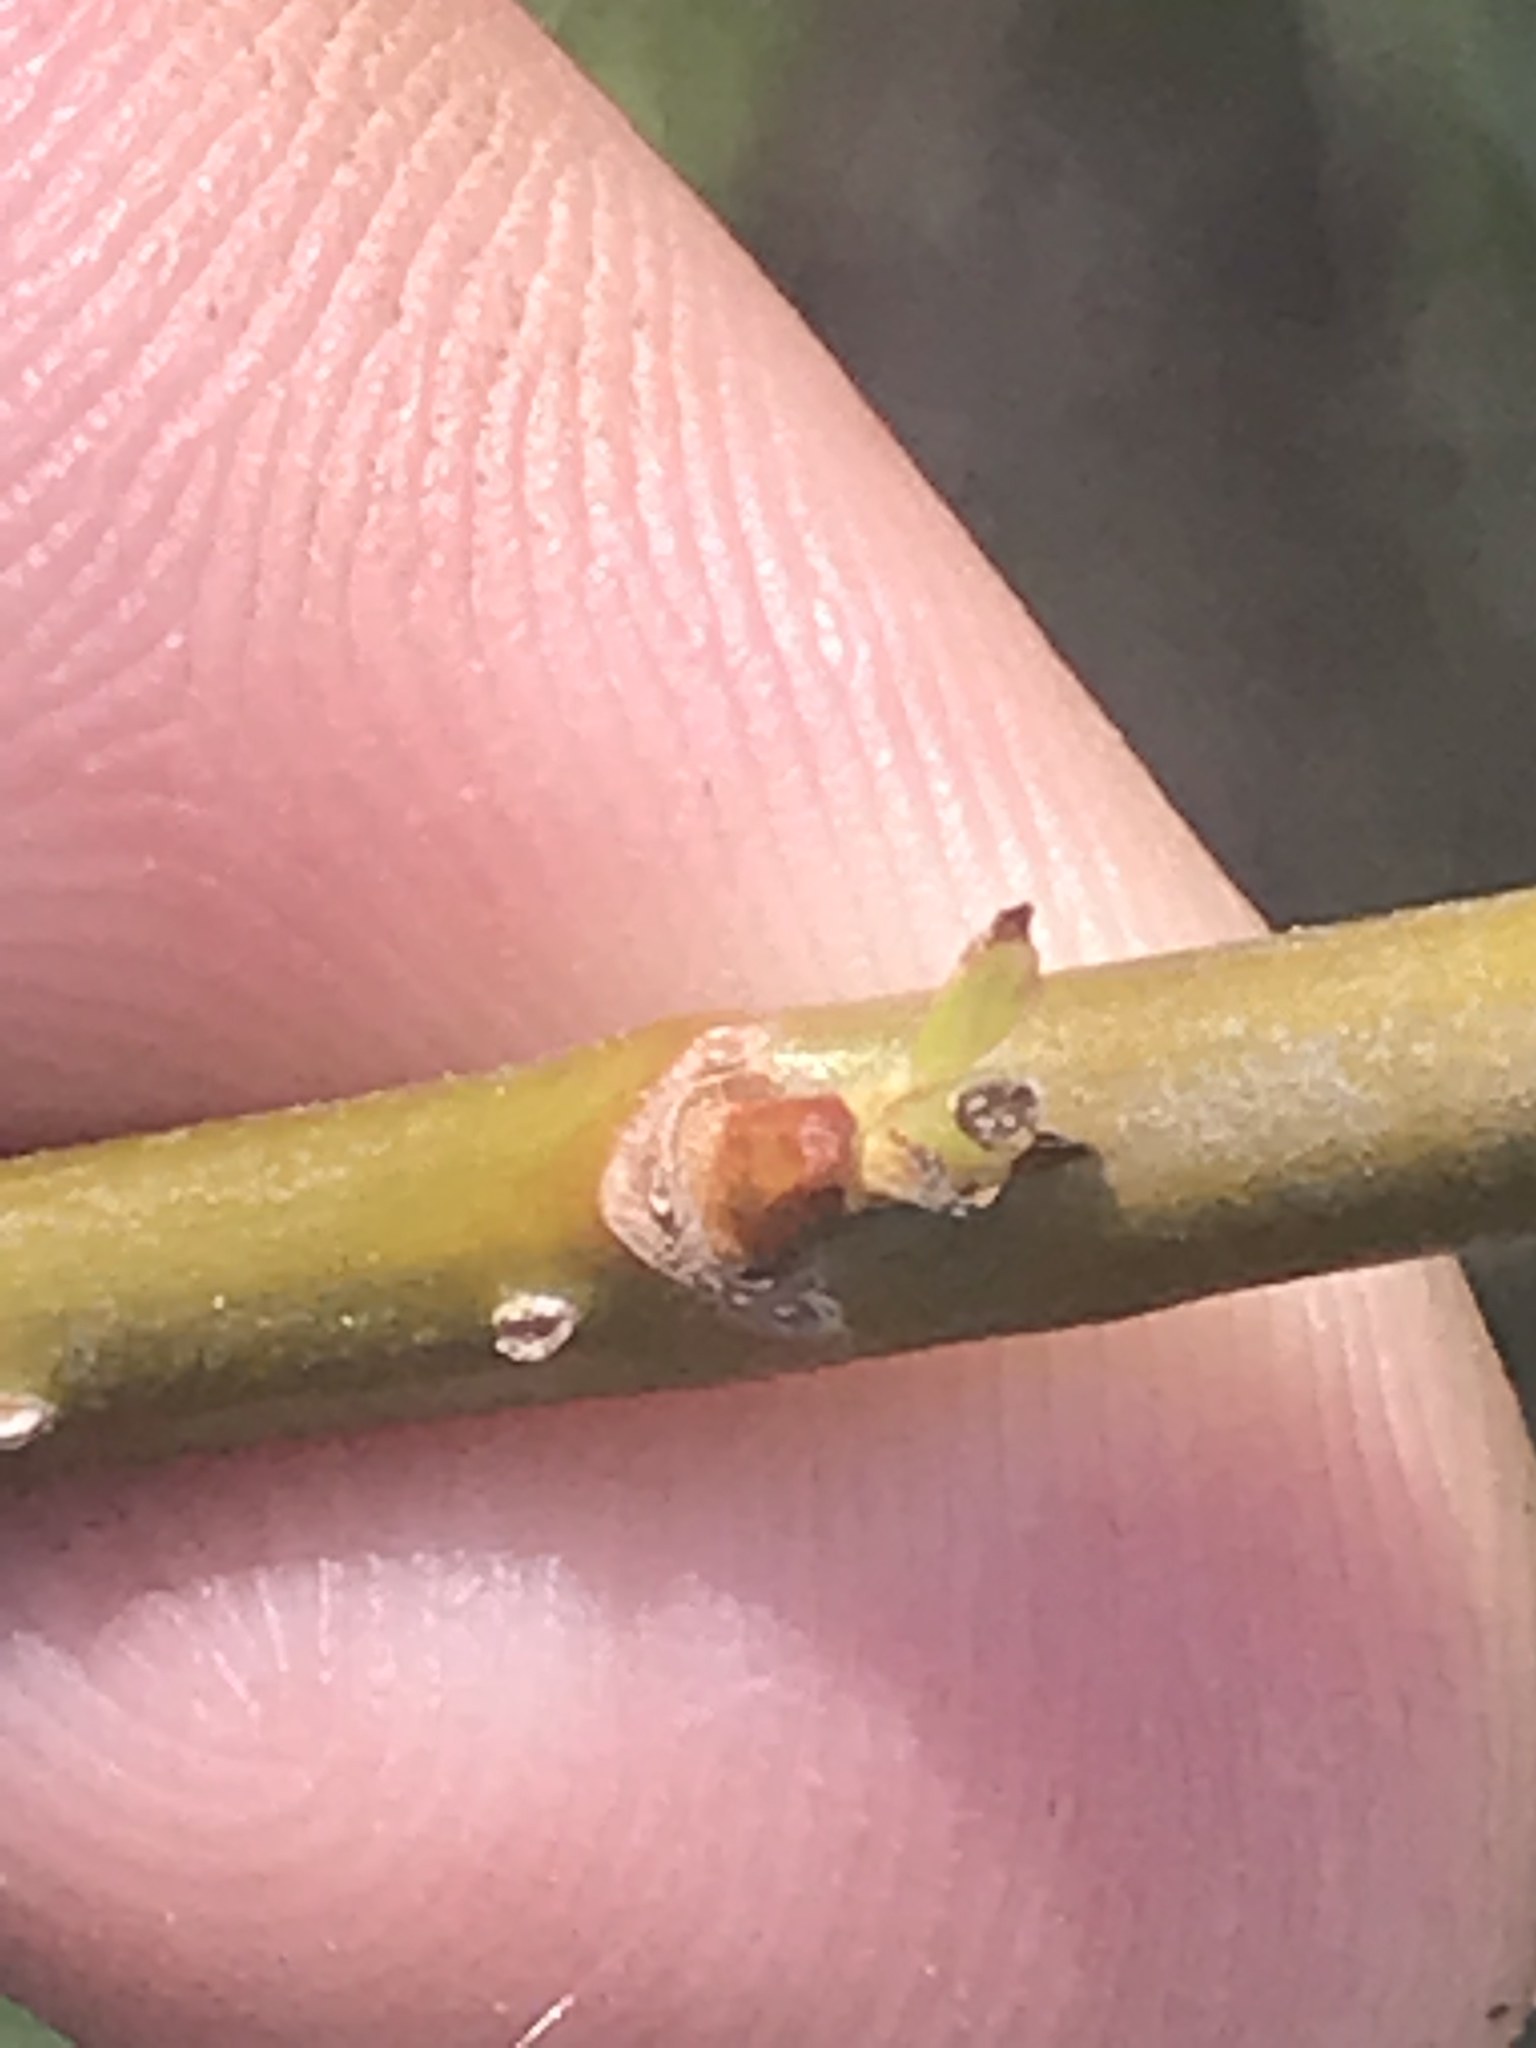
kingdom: Plantae
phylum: Tracheophyta
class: Magnoliopsida
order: Malpighiales
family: Salicaceae
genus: Salix
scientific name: Salix nigra
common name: Black willow
